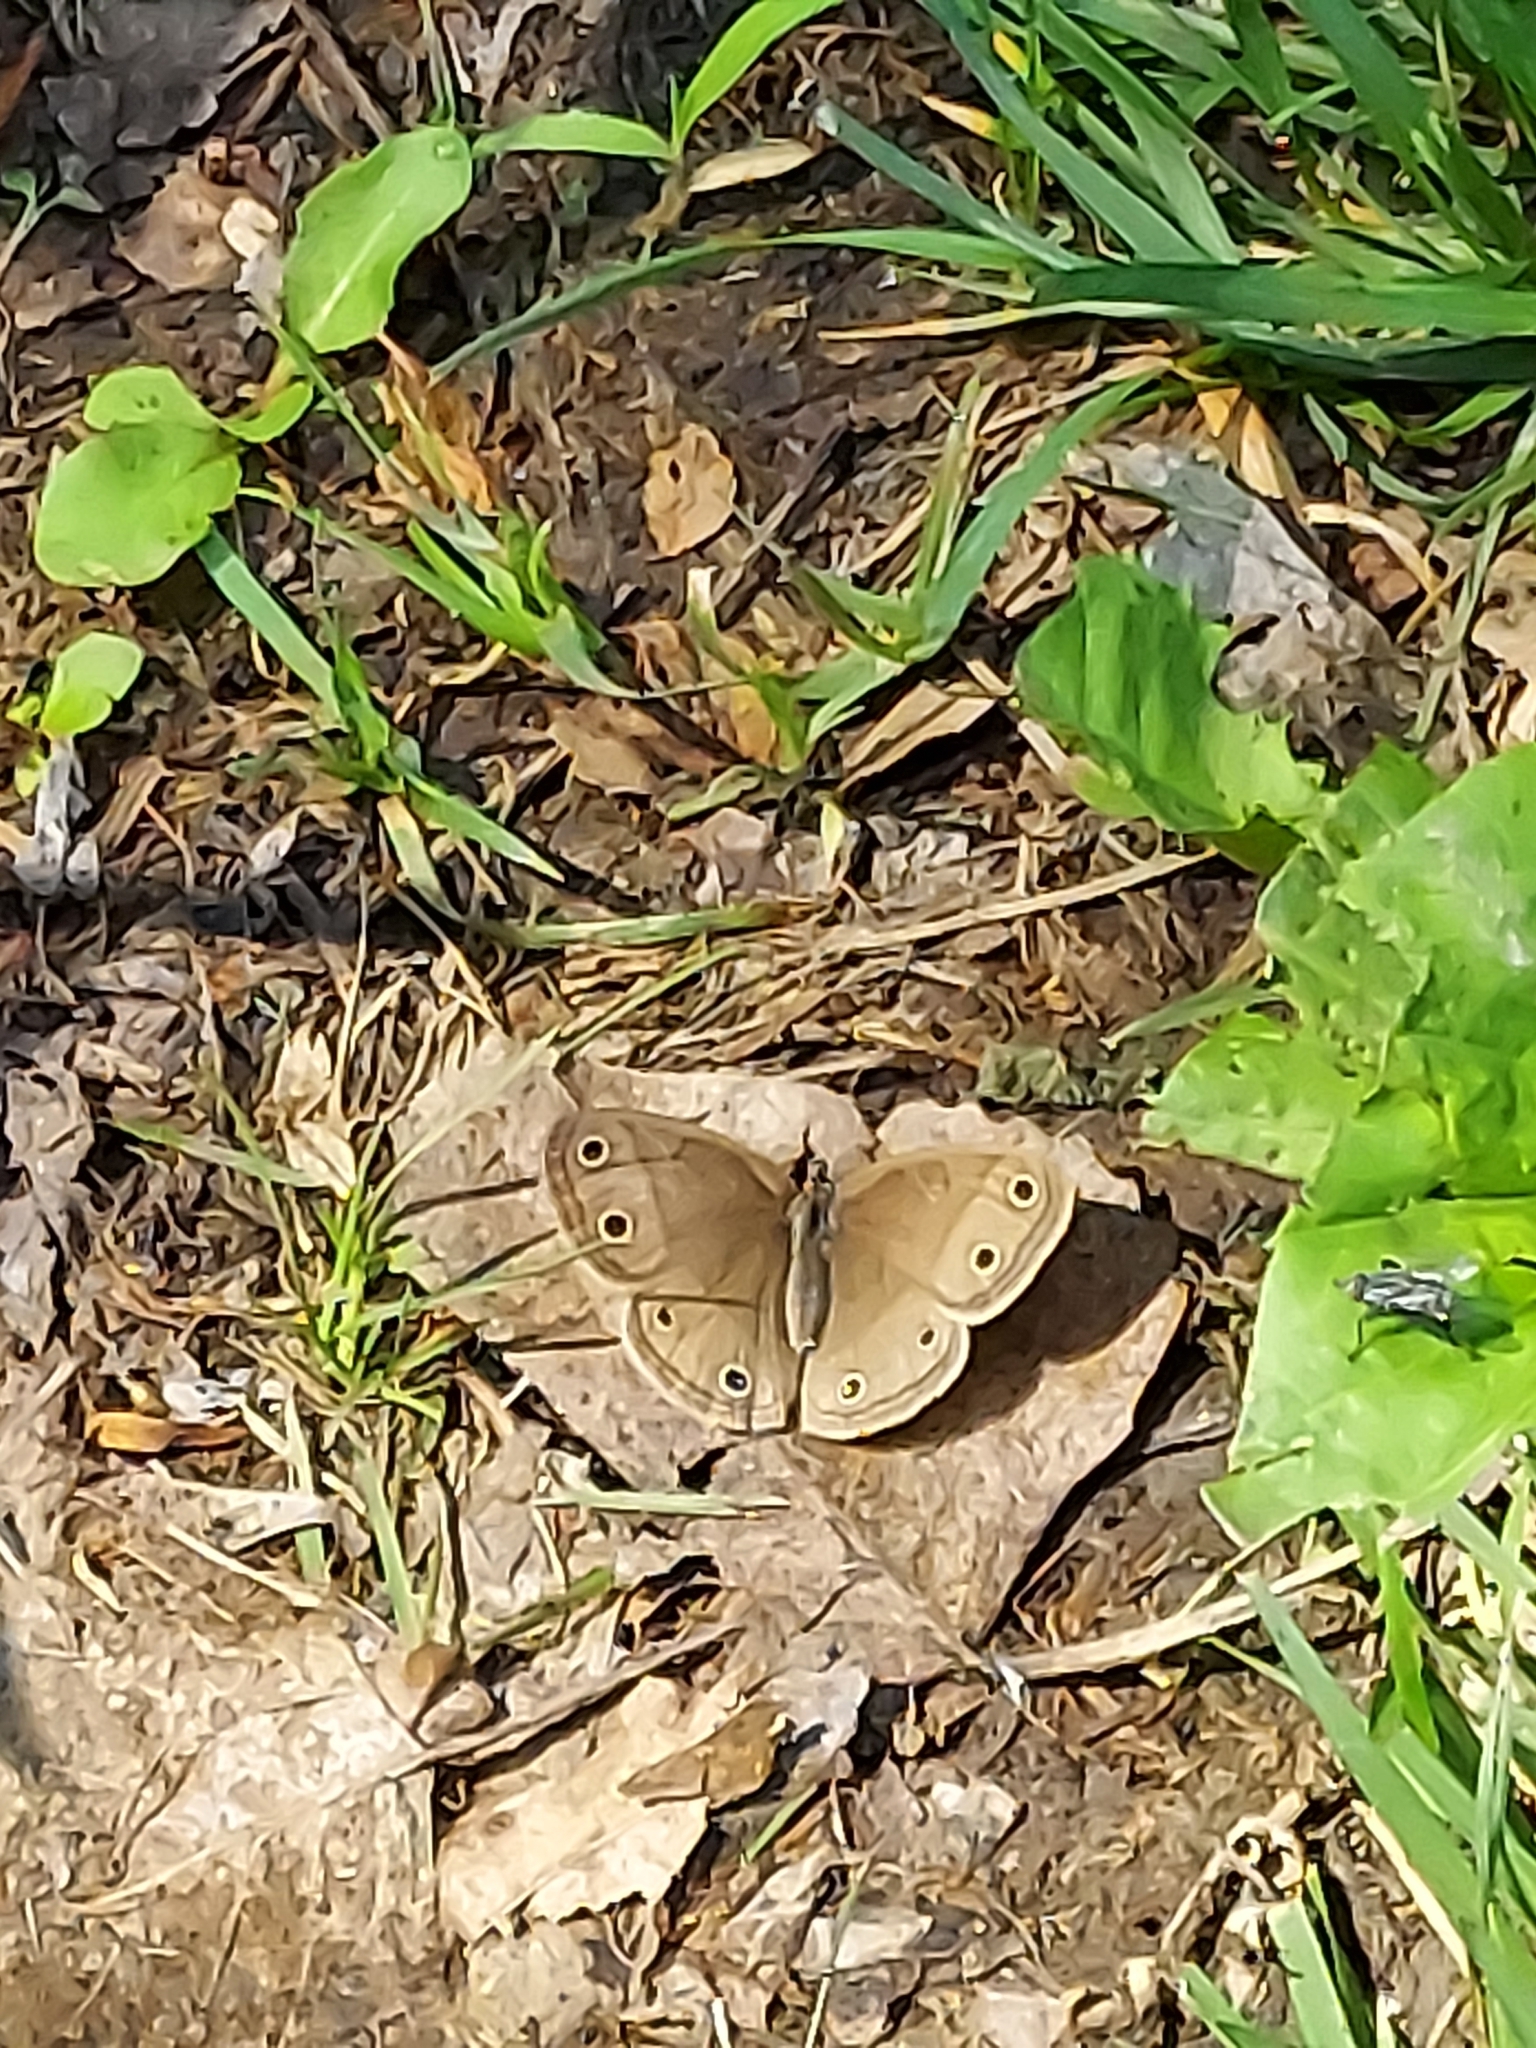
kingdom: Animalia
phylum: Arthropoda
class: Insecta
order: Lepidoptera
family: Nymphalidae
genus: Euptychia
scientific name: Euptychia cymela
